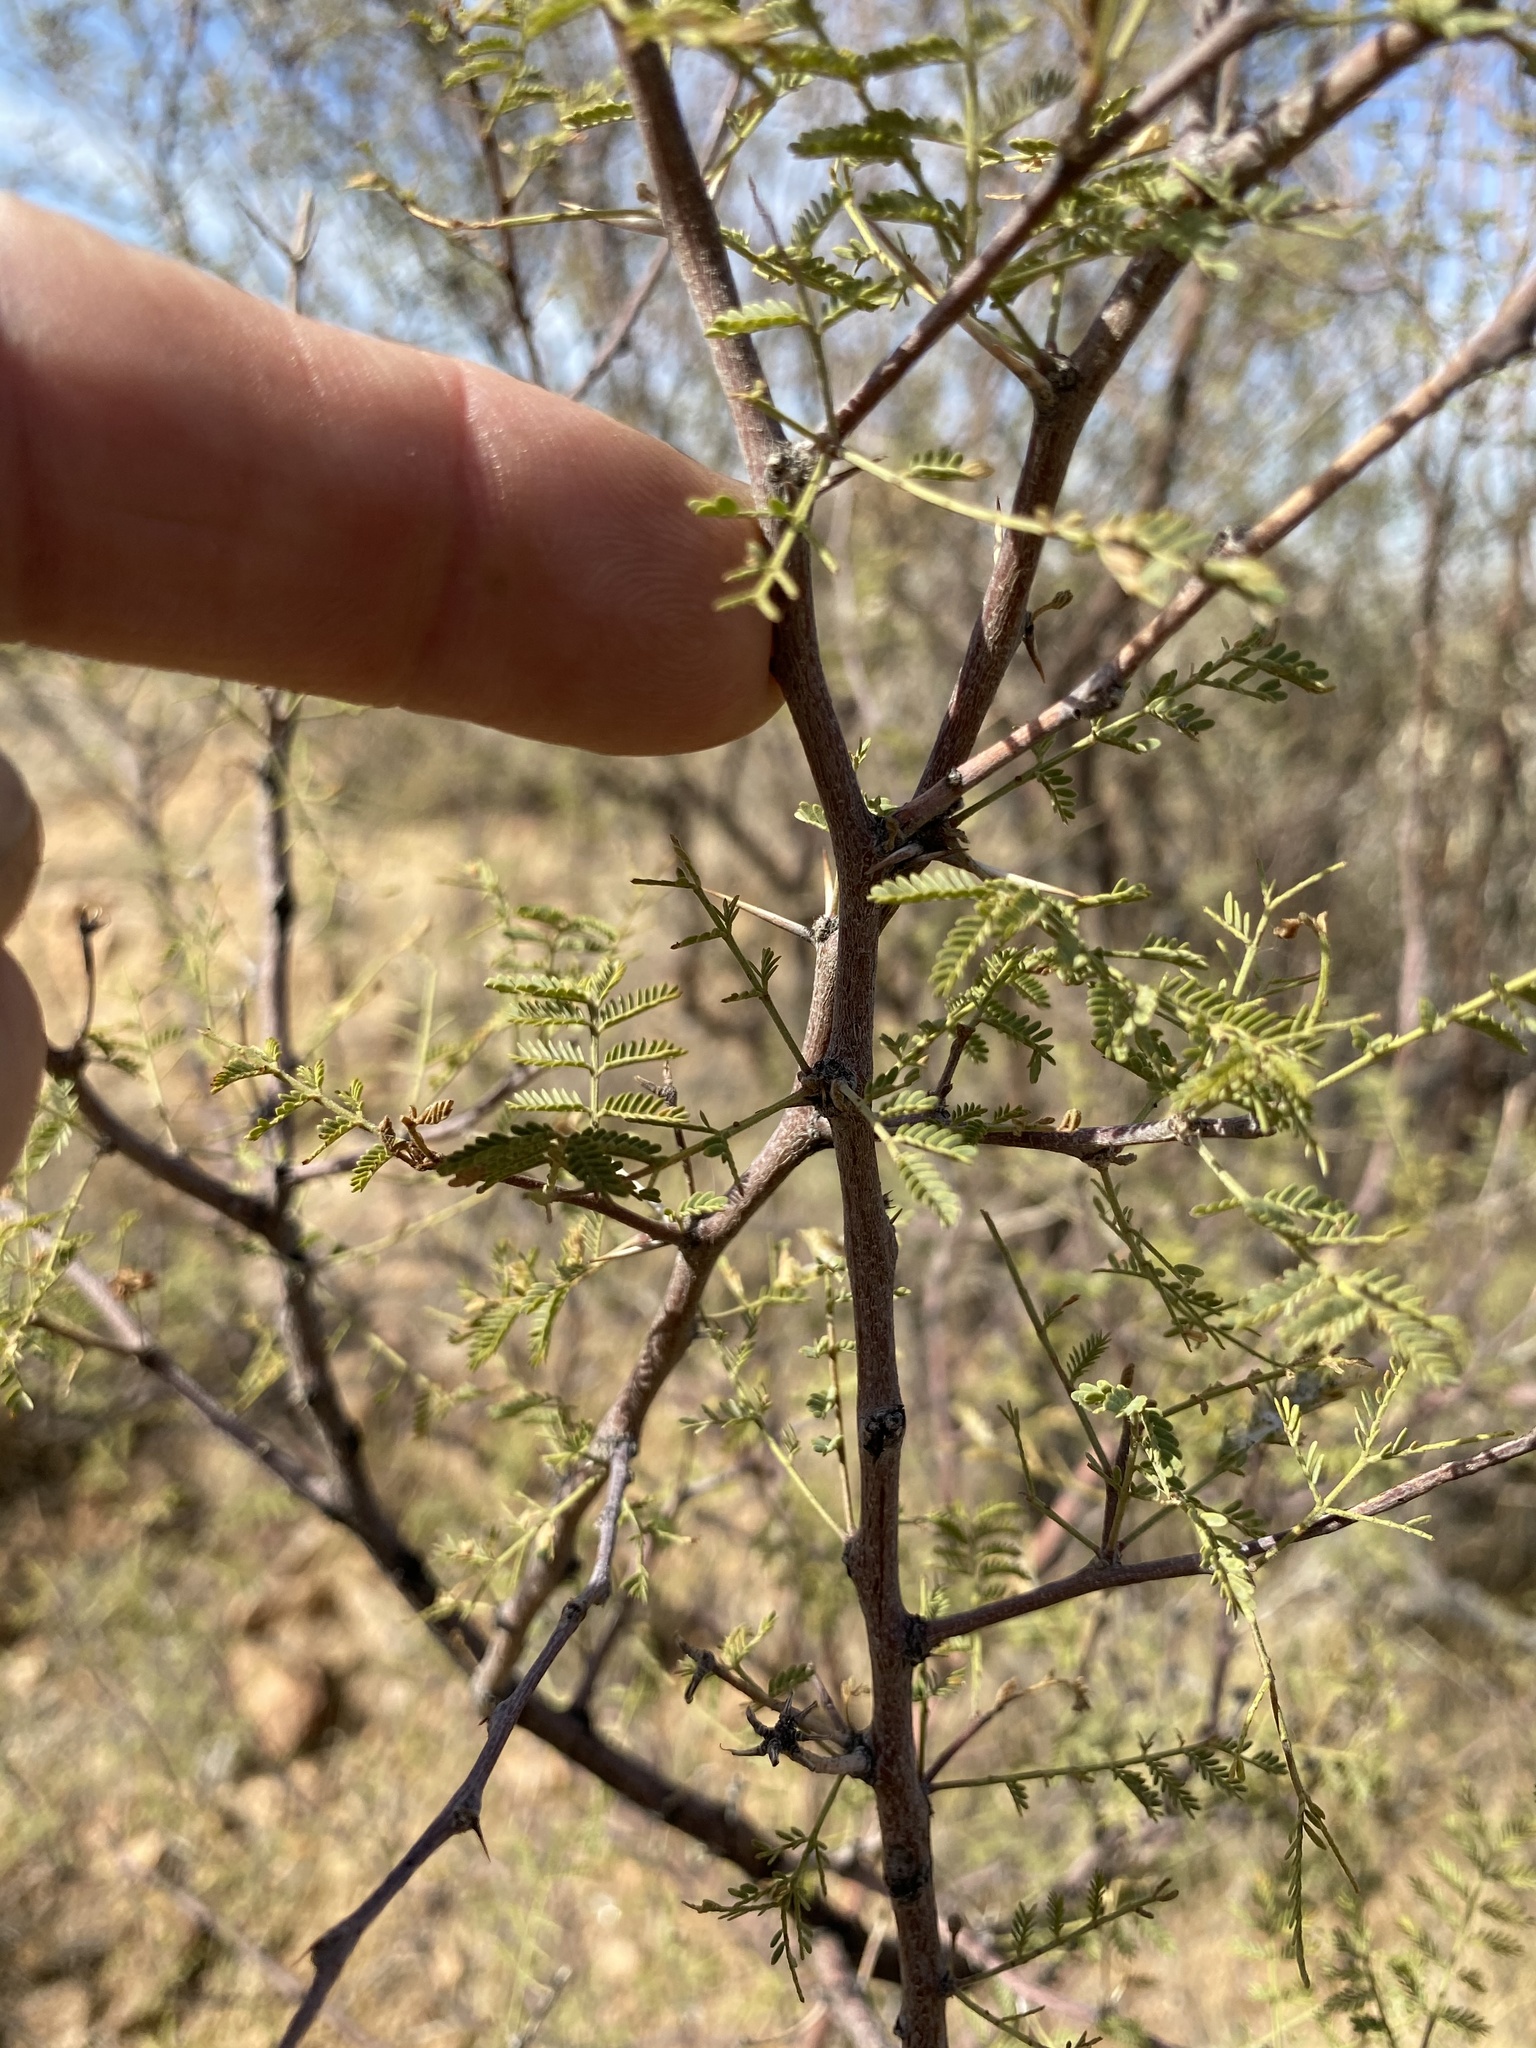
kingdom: Plantae
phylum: Tracheophyta
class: Magnoliopsida
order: Fabales
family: Fabaceae
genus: Vachellia
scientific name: Vachellia constricta
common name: Mescat acacia
